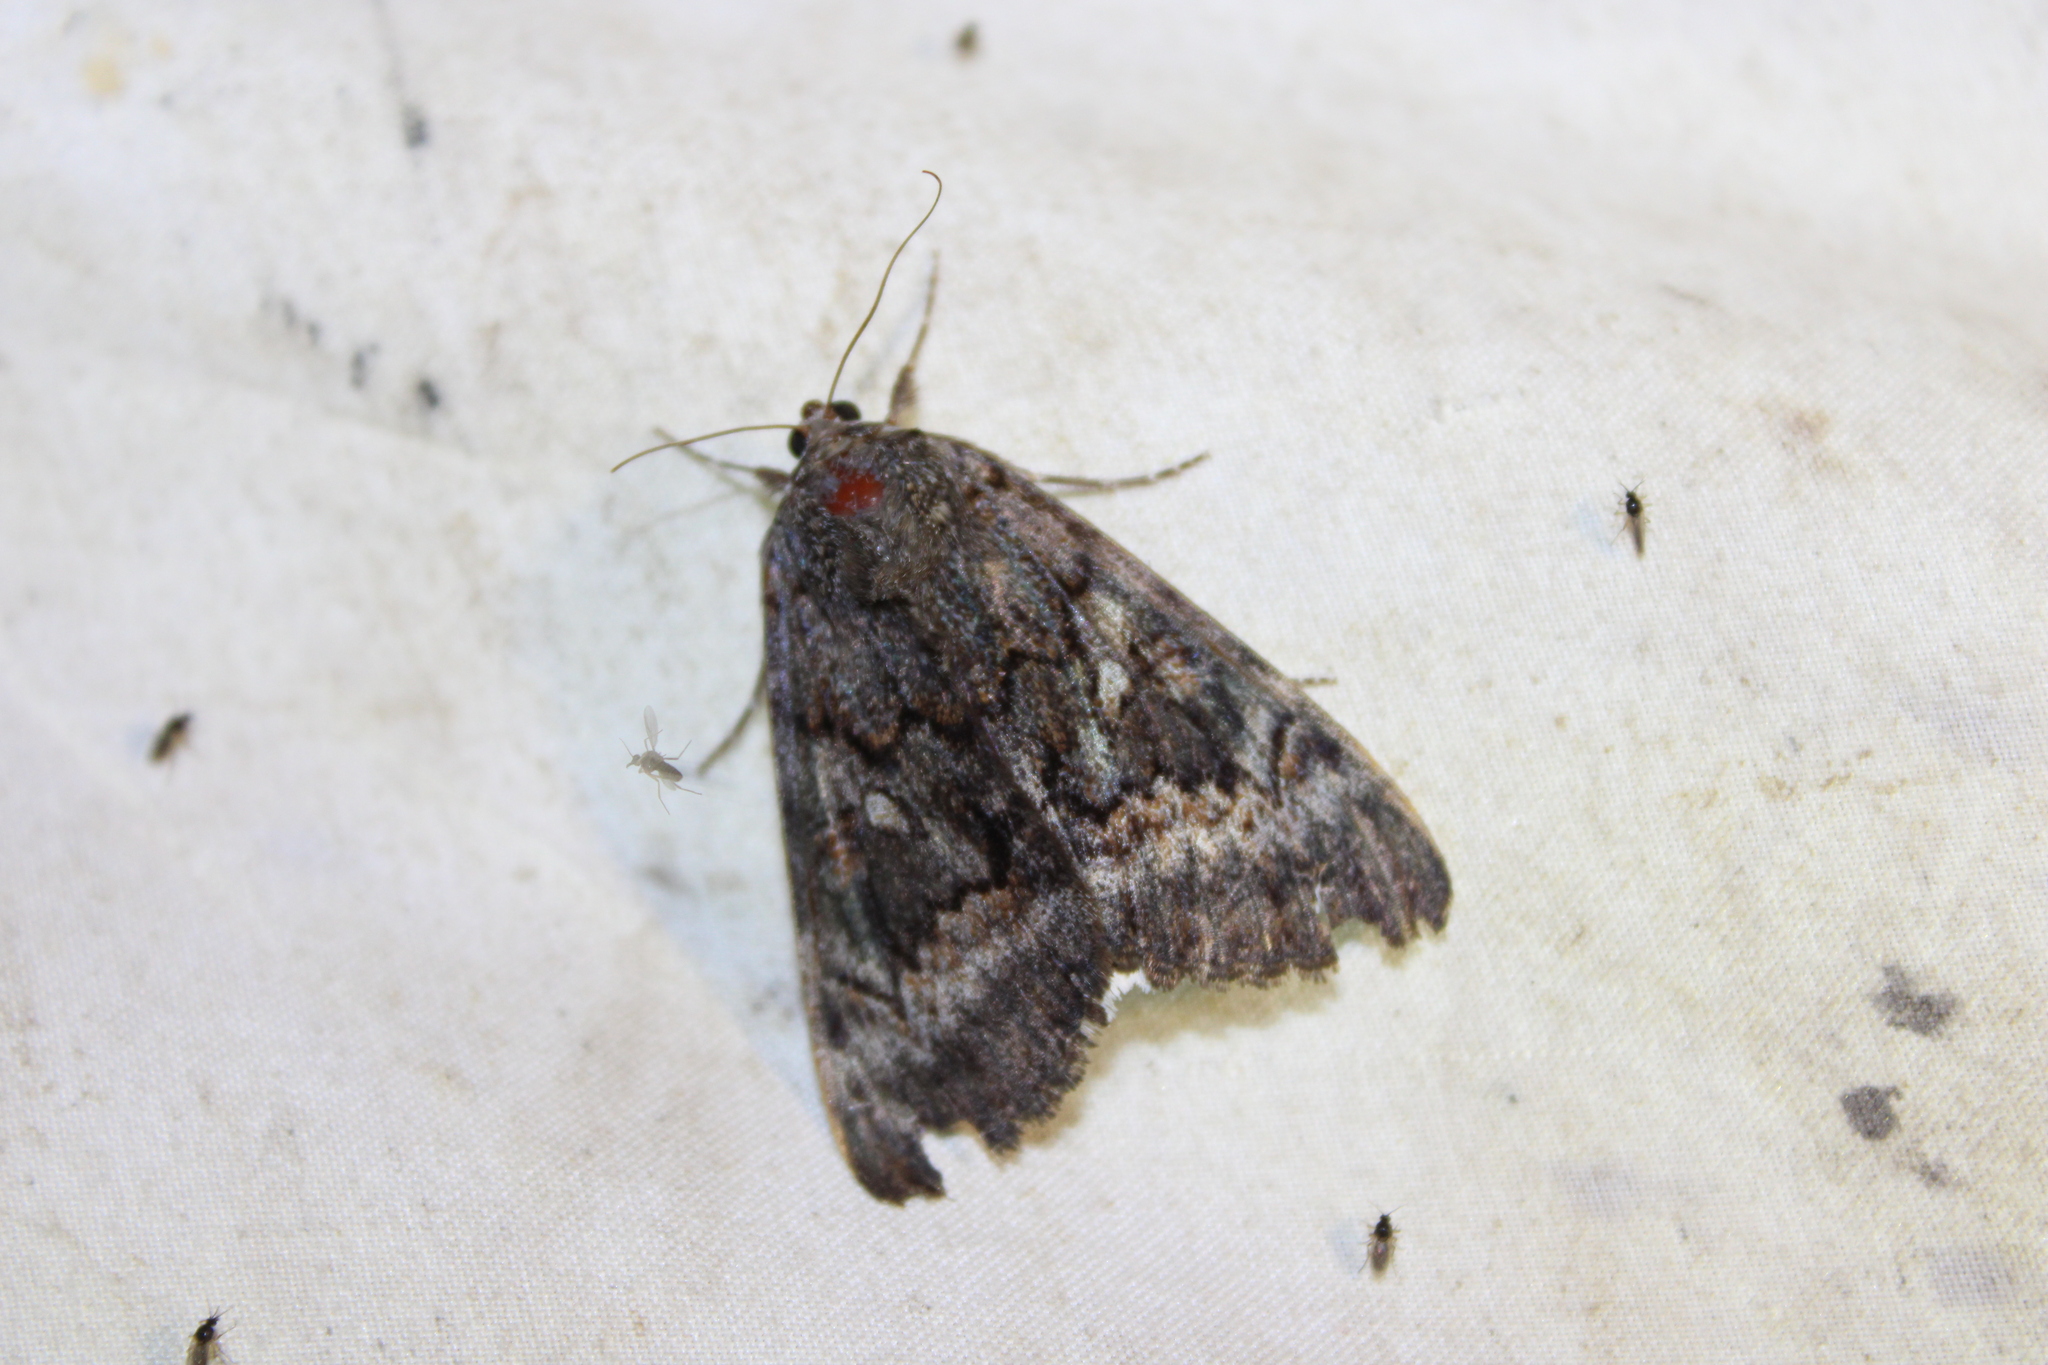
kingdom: Animalia
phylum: Arthropoda
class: Insecta
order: Lepidoptera
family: Erebidae
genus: Catocala
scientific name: Catocala epione
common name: Epione underwing
